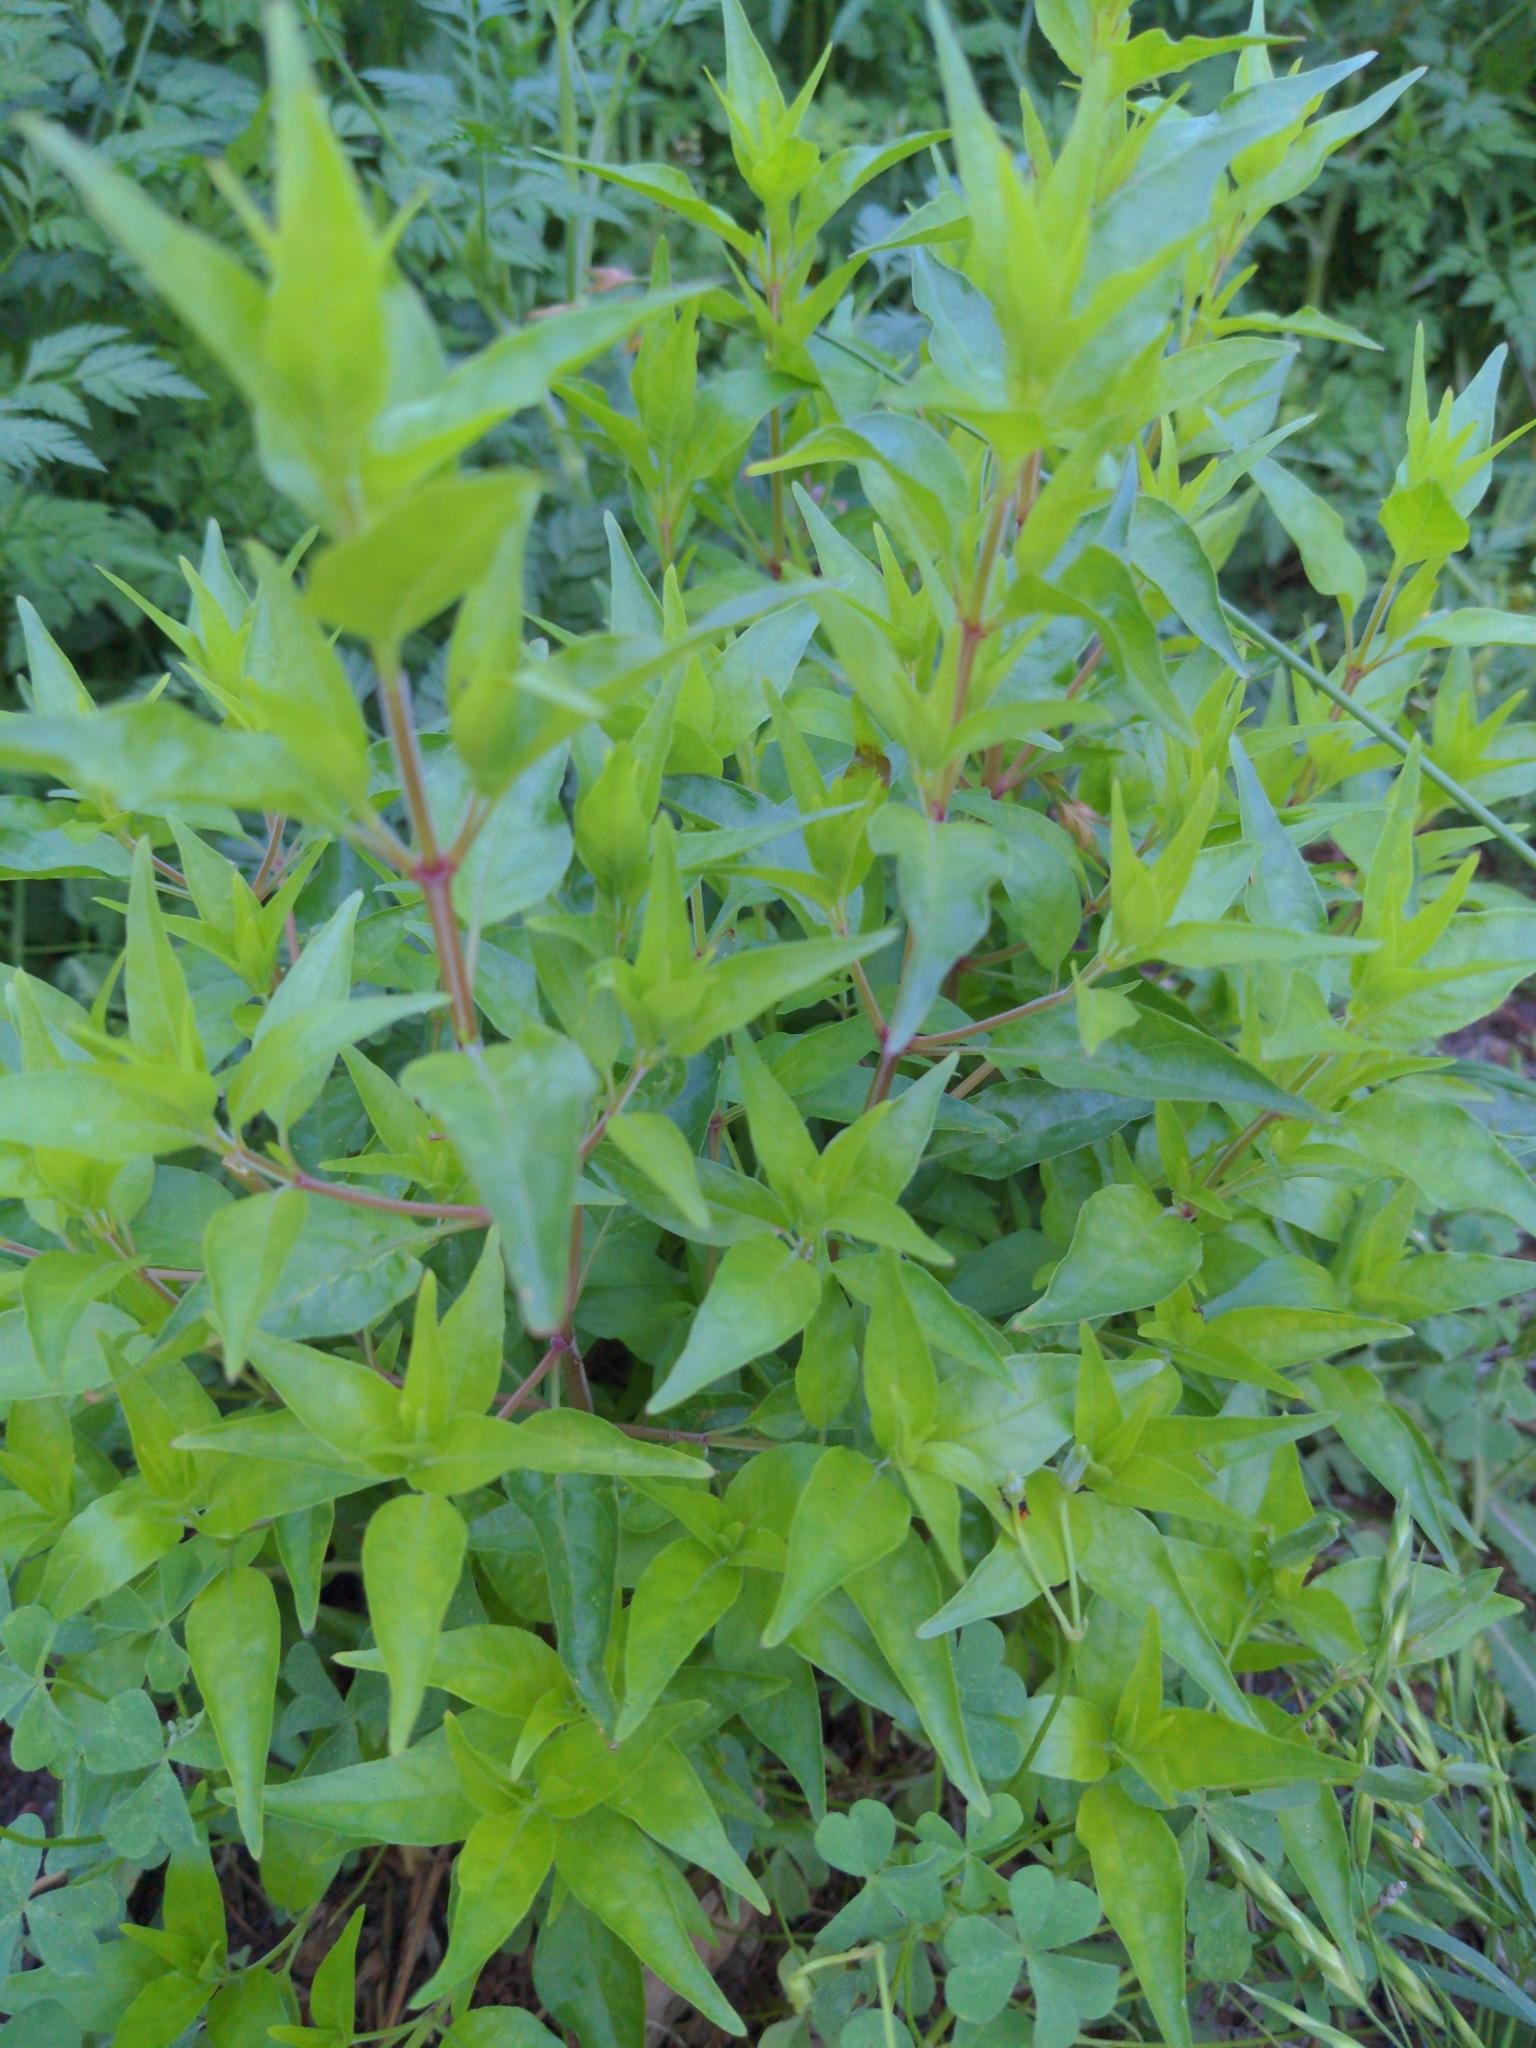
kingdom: Plantae
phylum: Tracheophyta
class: Magnoliopsida
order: Lamiales
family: Acanthaceae
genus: Anisacanthus
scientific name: Anisacanthus quadrifidus
